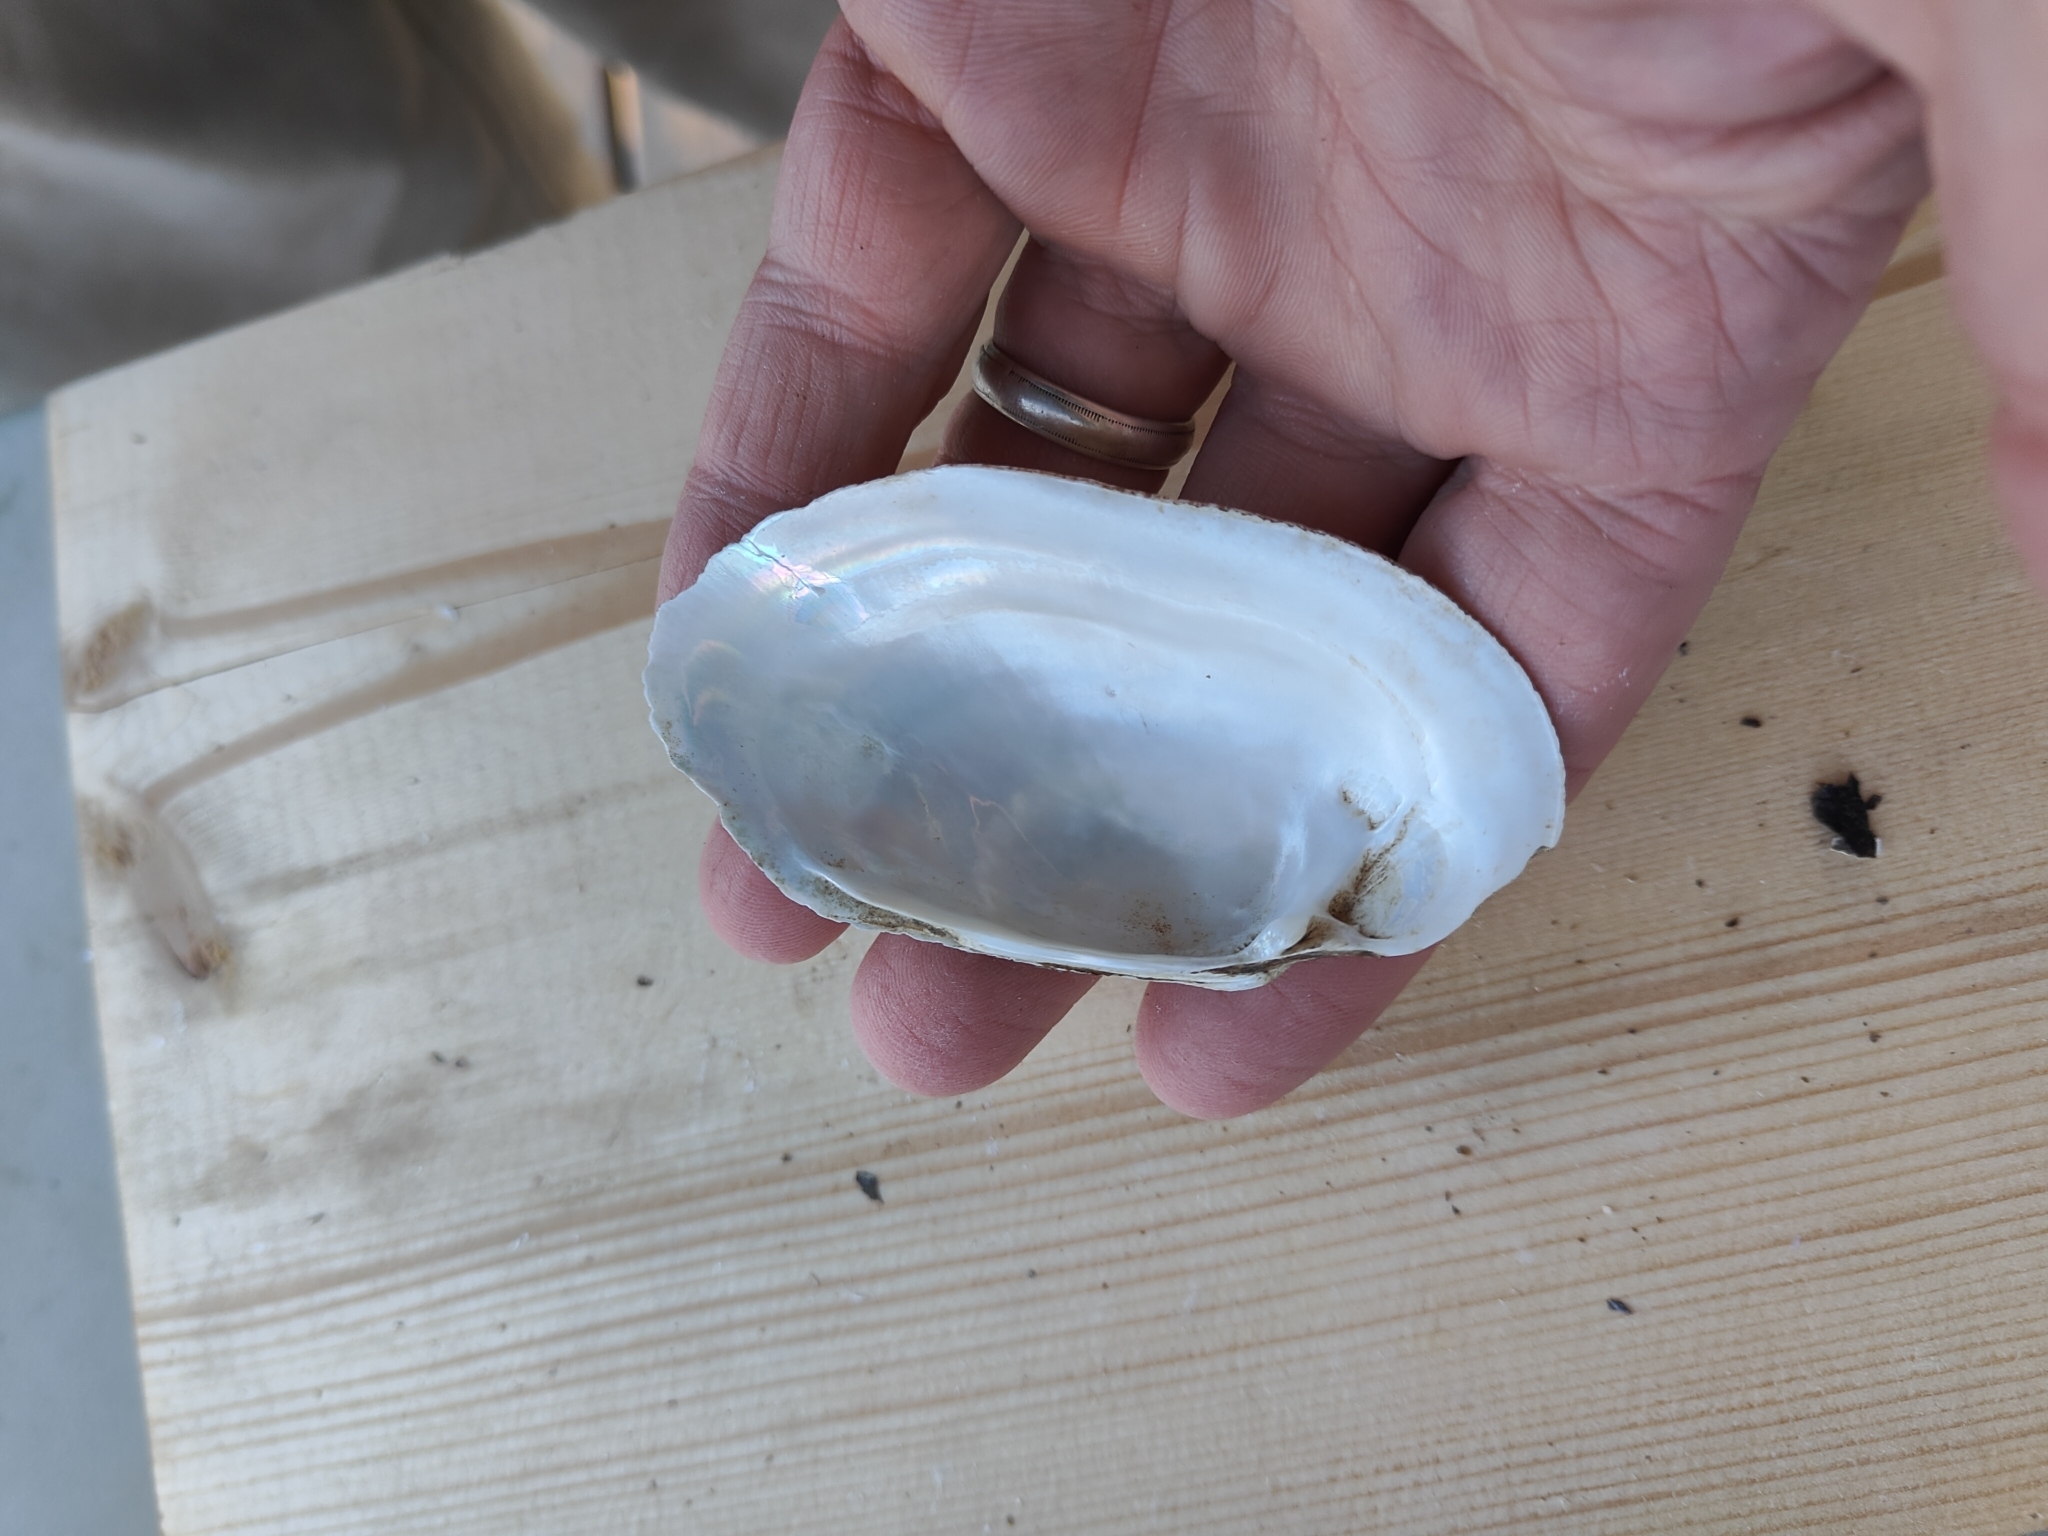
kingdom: Animalia
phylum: Mollusca
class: Bivalvia
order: Unionida
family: Unionidae
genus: Lampsilis
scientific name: Lampsilis siliquoidea
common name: Fatmucket
